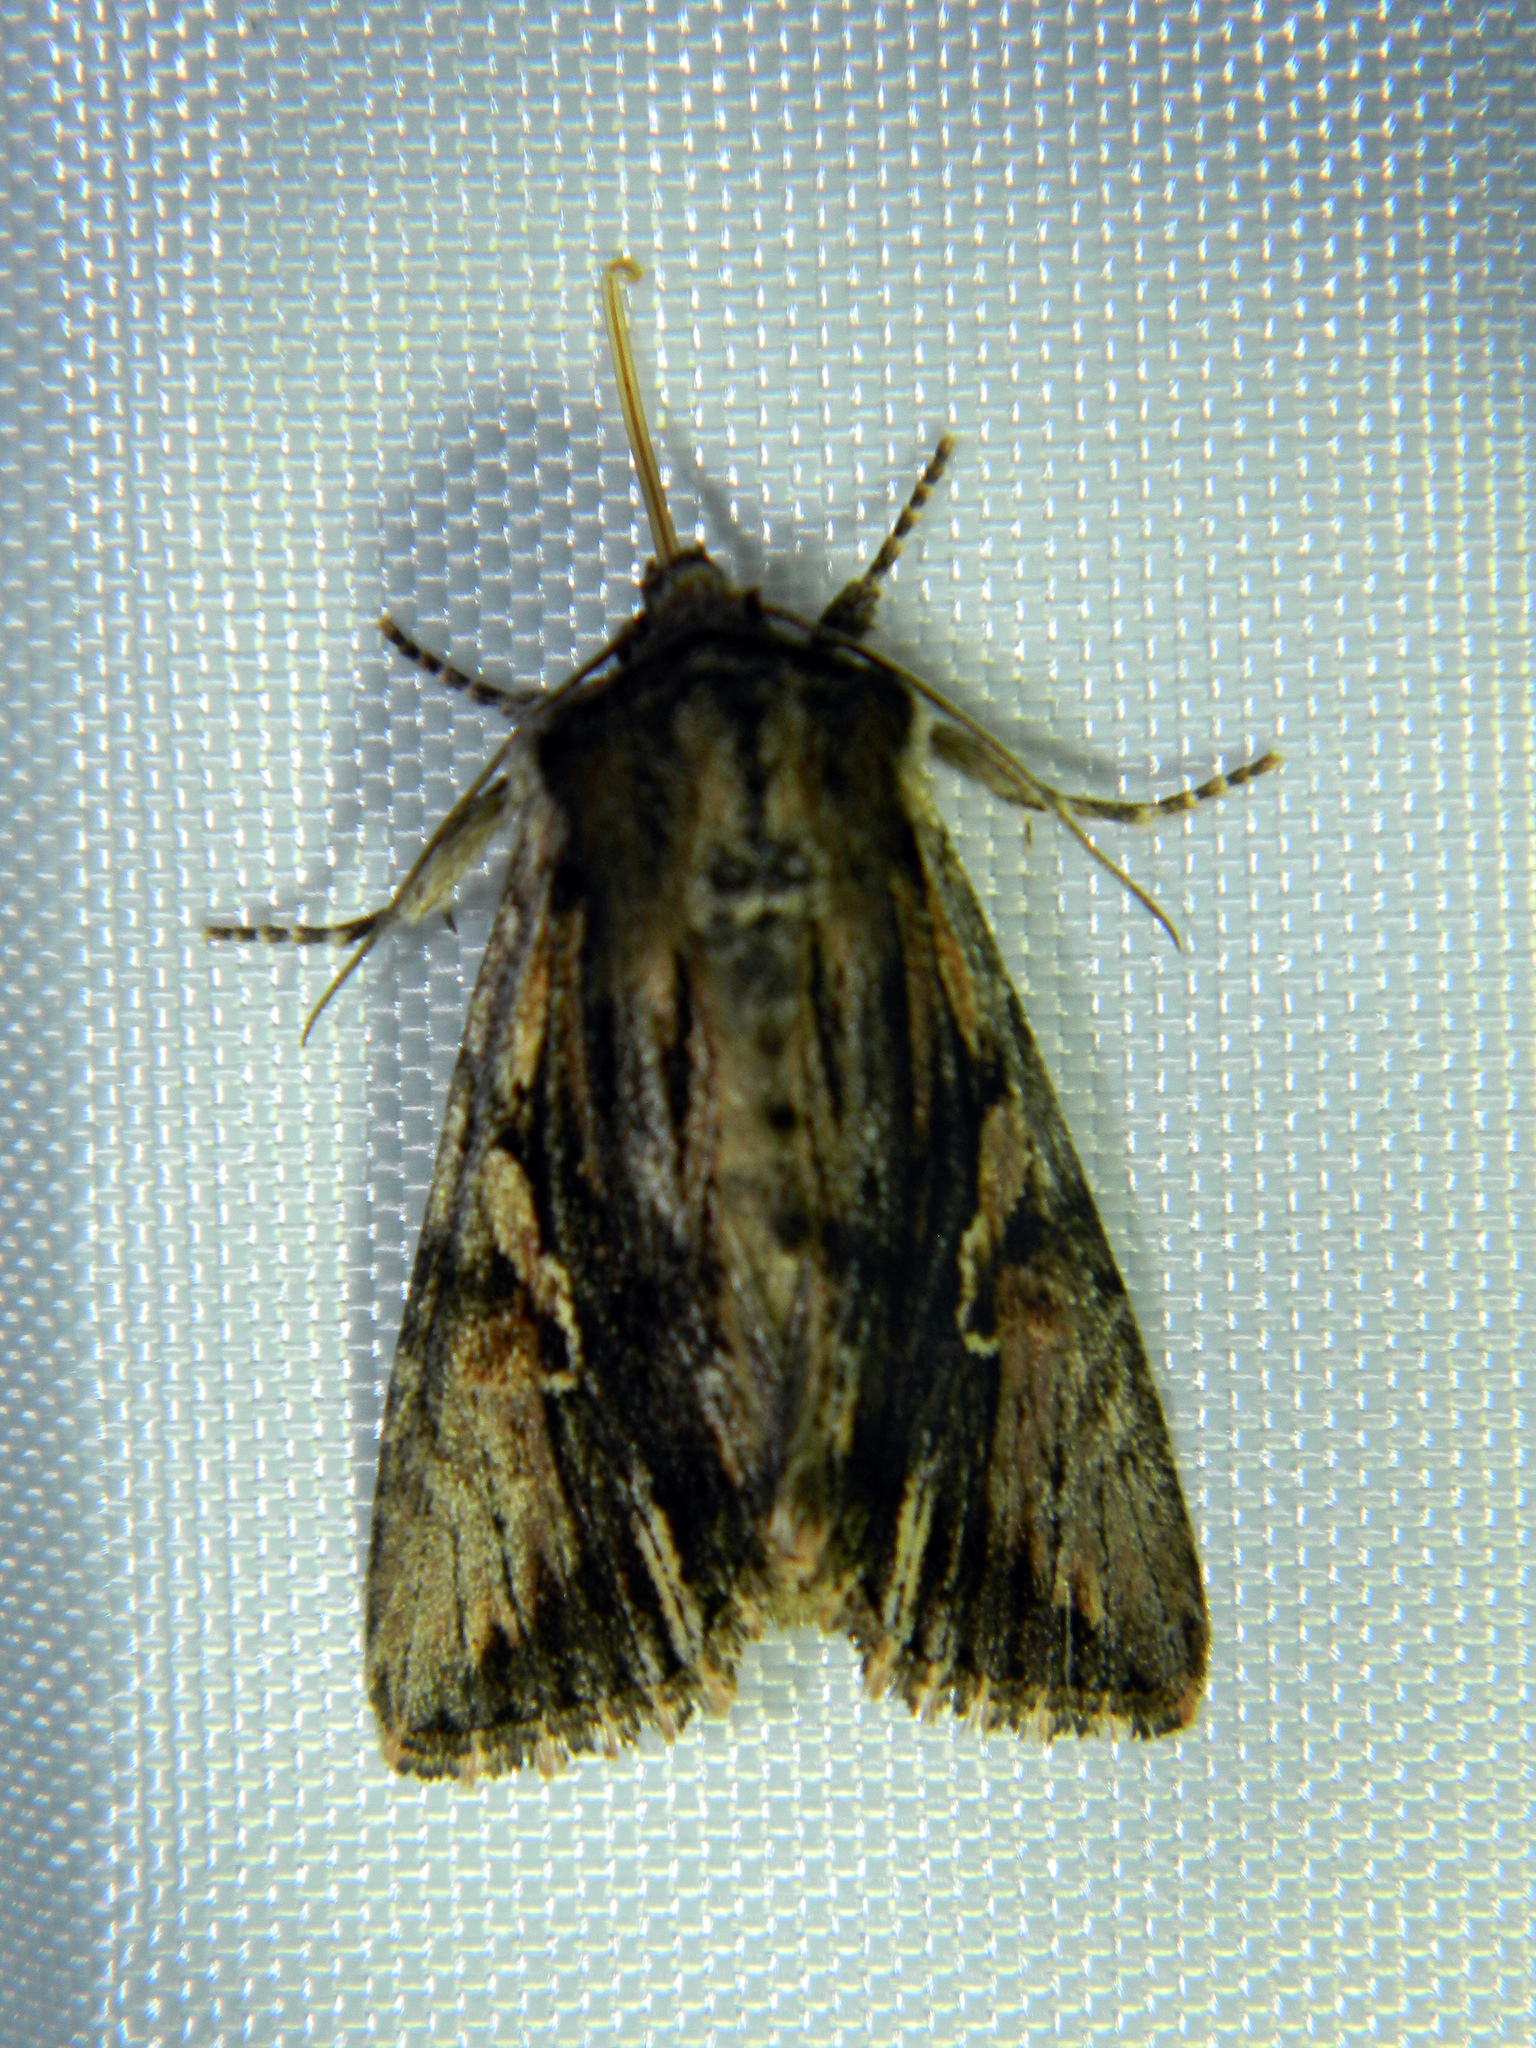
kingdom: Animalia
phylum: Arthropoda
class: Insecta
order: Lepidoptera
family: Noctuidae
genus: Achatia
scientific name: Achatia evicta
